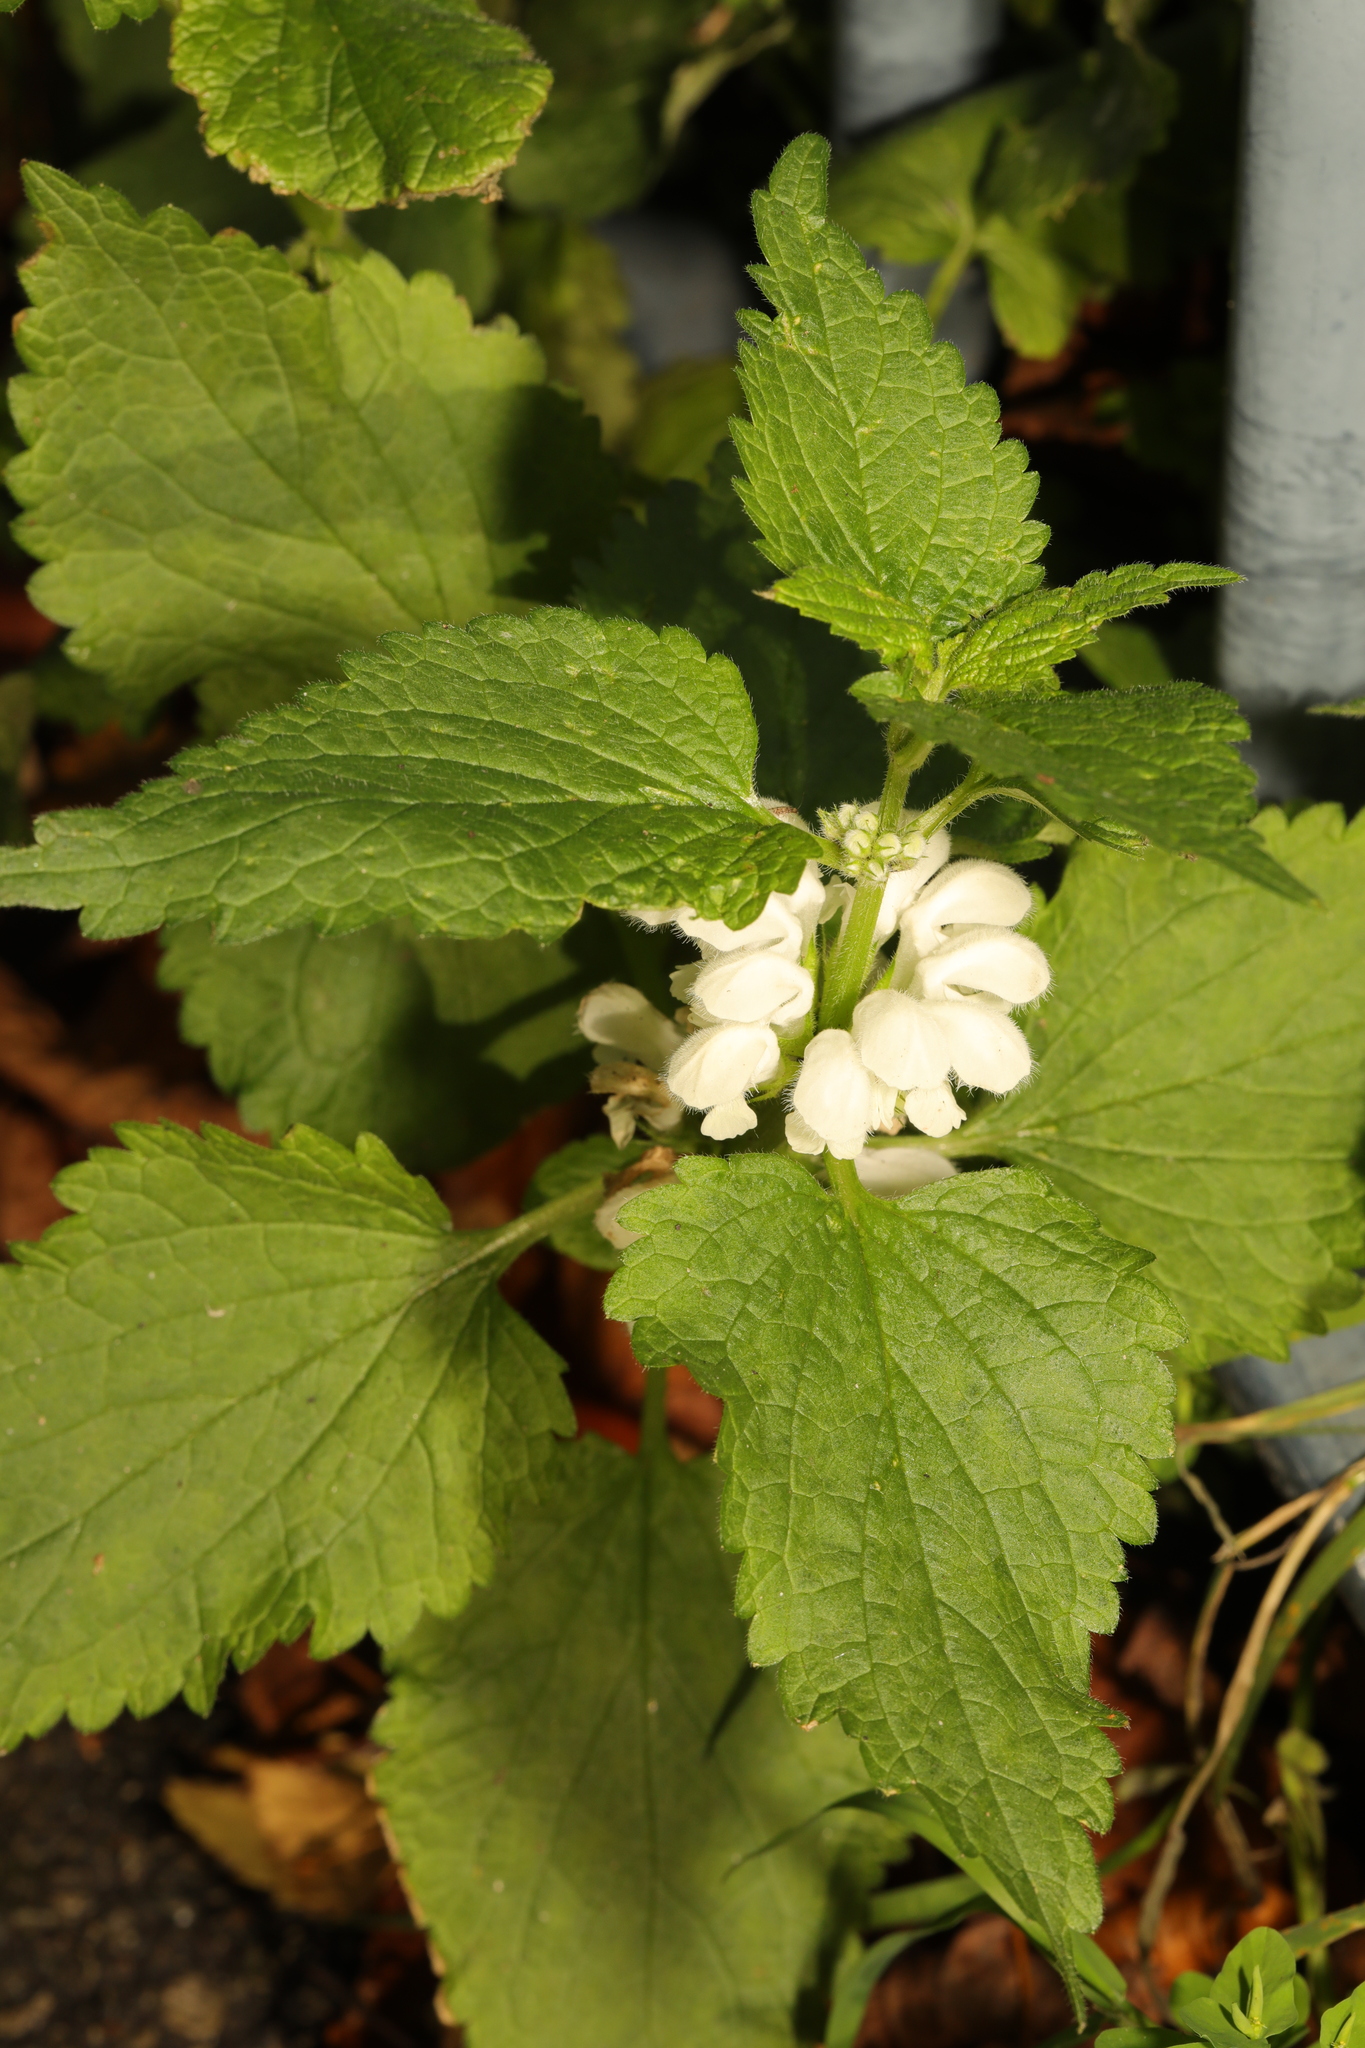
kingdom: Plantae
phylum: Tracheophyta
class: Magnoliopsida
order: Lamiales
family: Lamiaceae
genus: Lamium
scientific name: Lamium album
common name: White dead-nettle
